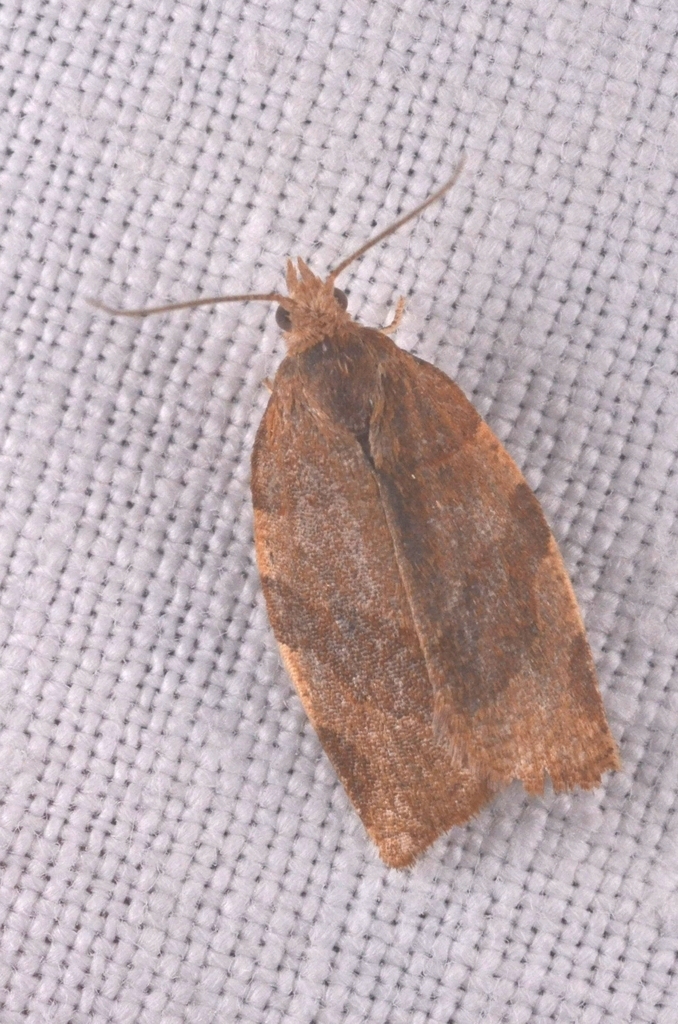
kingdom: Animalia
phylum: Arthropoda
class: Insecta
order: Lepidoptera
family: Tortricidae
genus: Pandemis
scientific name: Pandemis cerasana
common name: Barred fruit-tree tortrix
